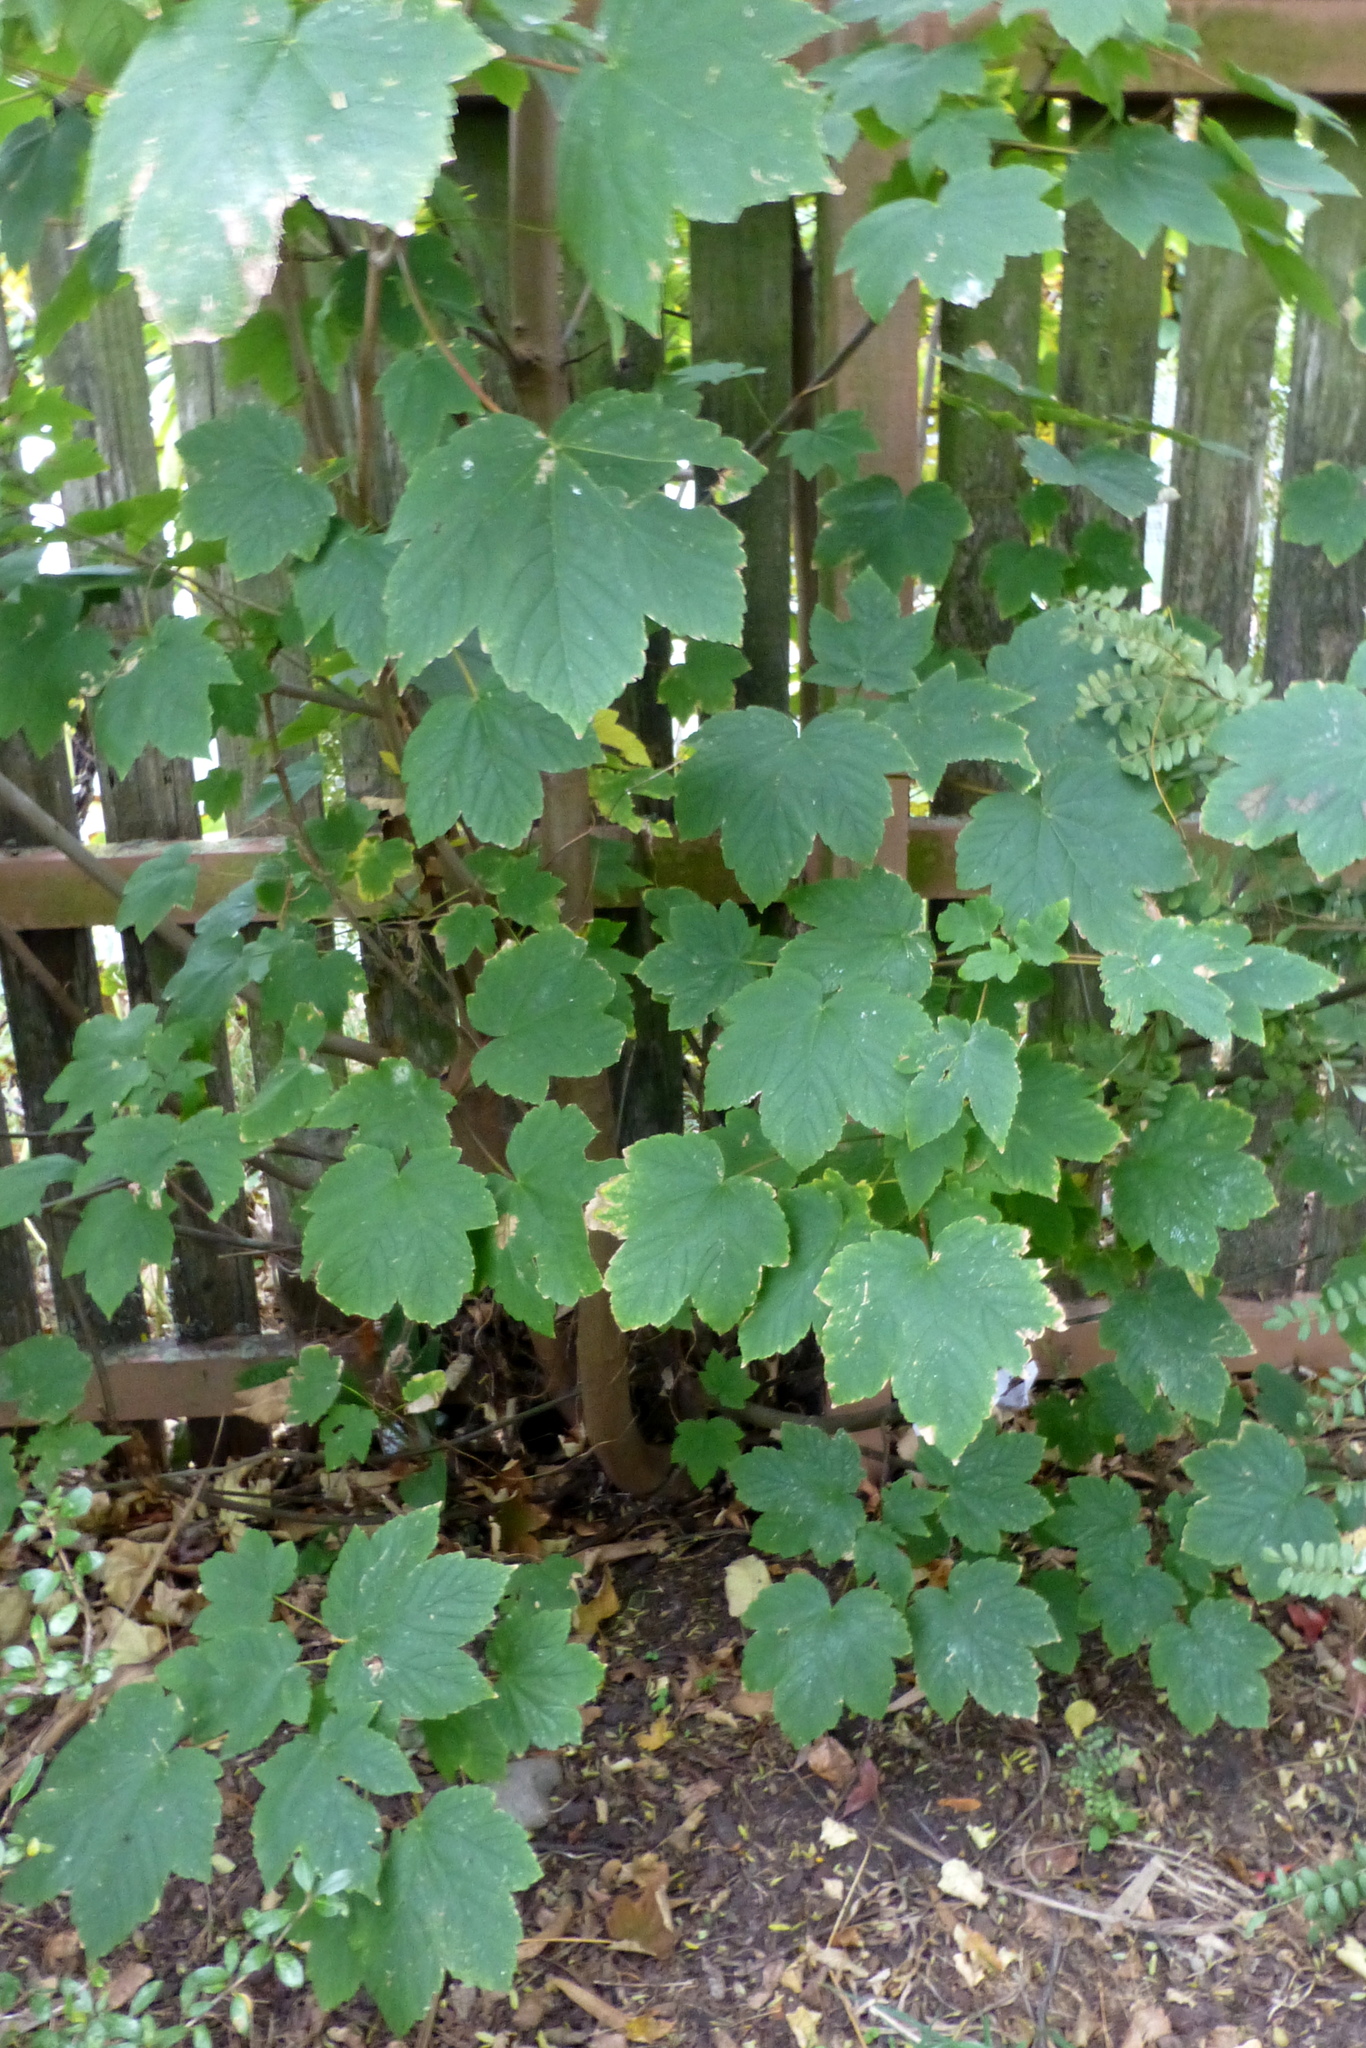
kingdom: Plantae
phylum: Tracheophyta
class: Magnoliopsida
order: Sapindales
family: Sapindaceae
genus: Acer
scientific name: Acer pseudoplatanus
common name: Sycamore
